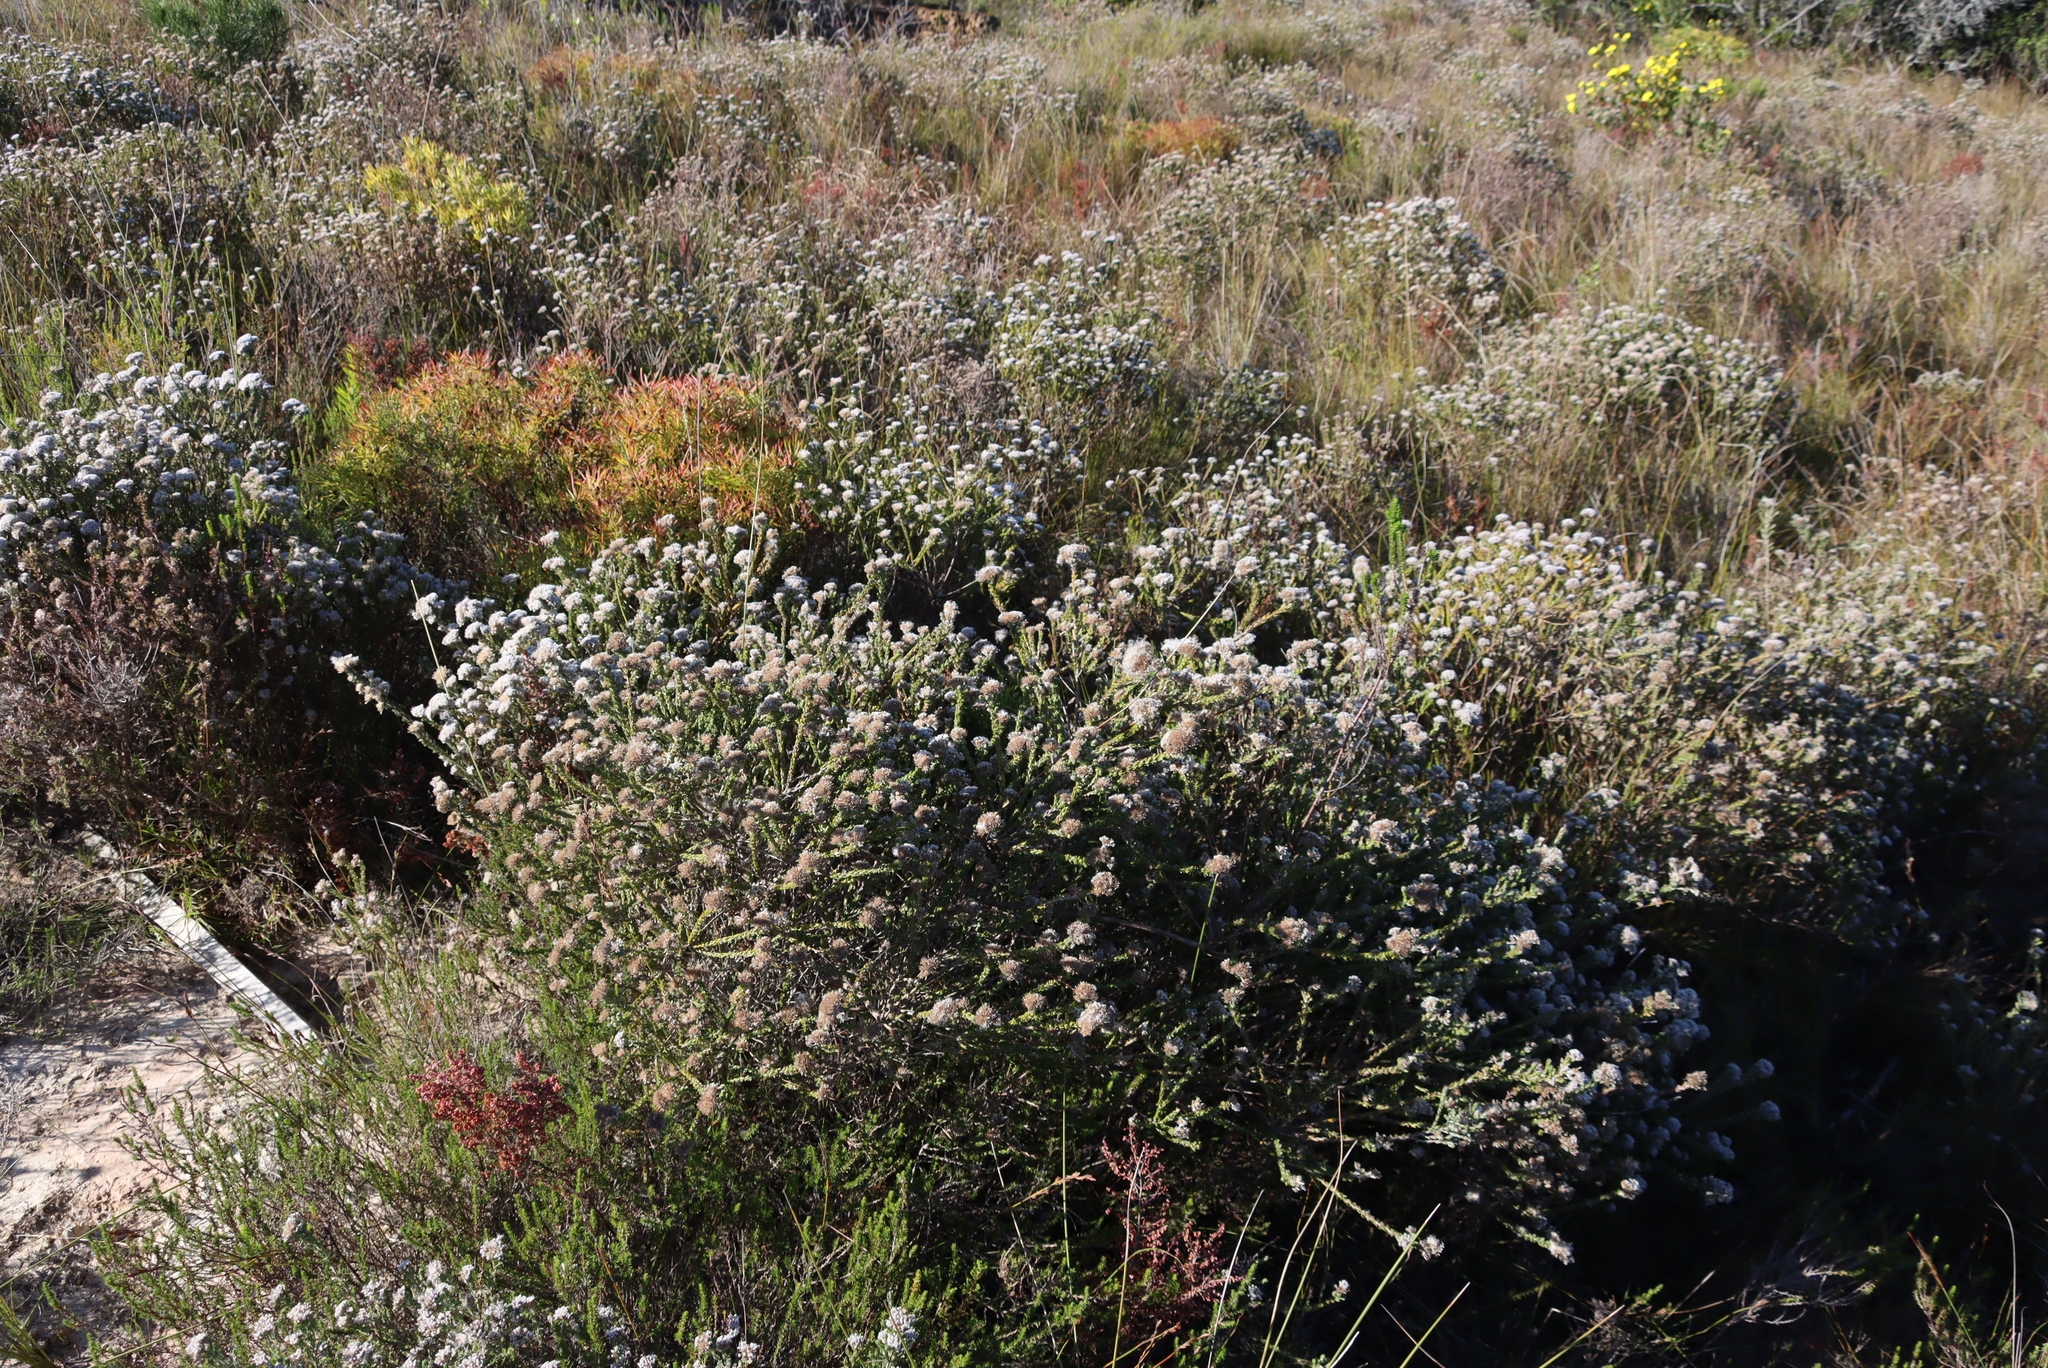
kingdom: Plantae
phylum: Tracheophyta
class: Magnoliopsida
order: Asterales
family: Asteraceae
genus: Metalasia
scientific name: Metalasia pungens
